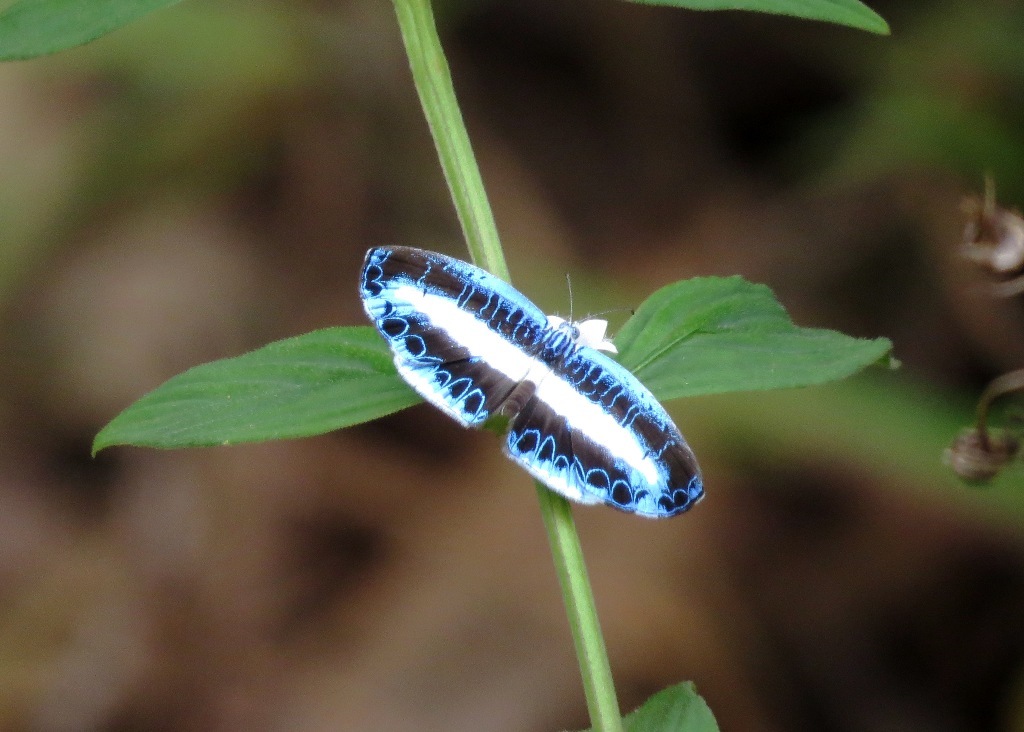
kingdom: Animalia
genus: Nymphidium
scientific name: Nymphidium mantus
